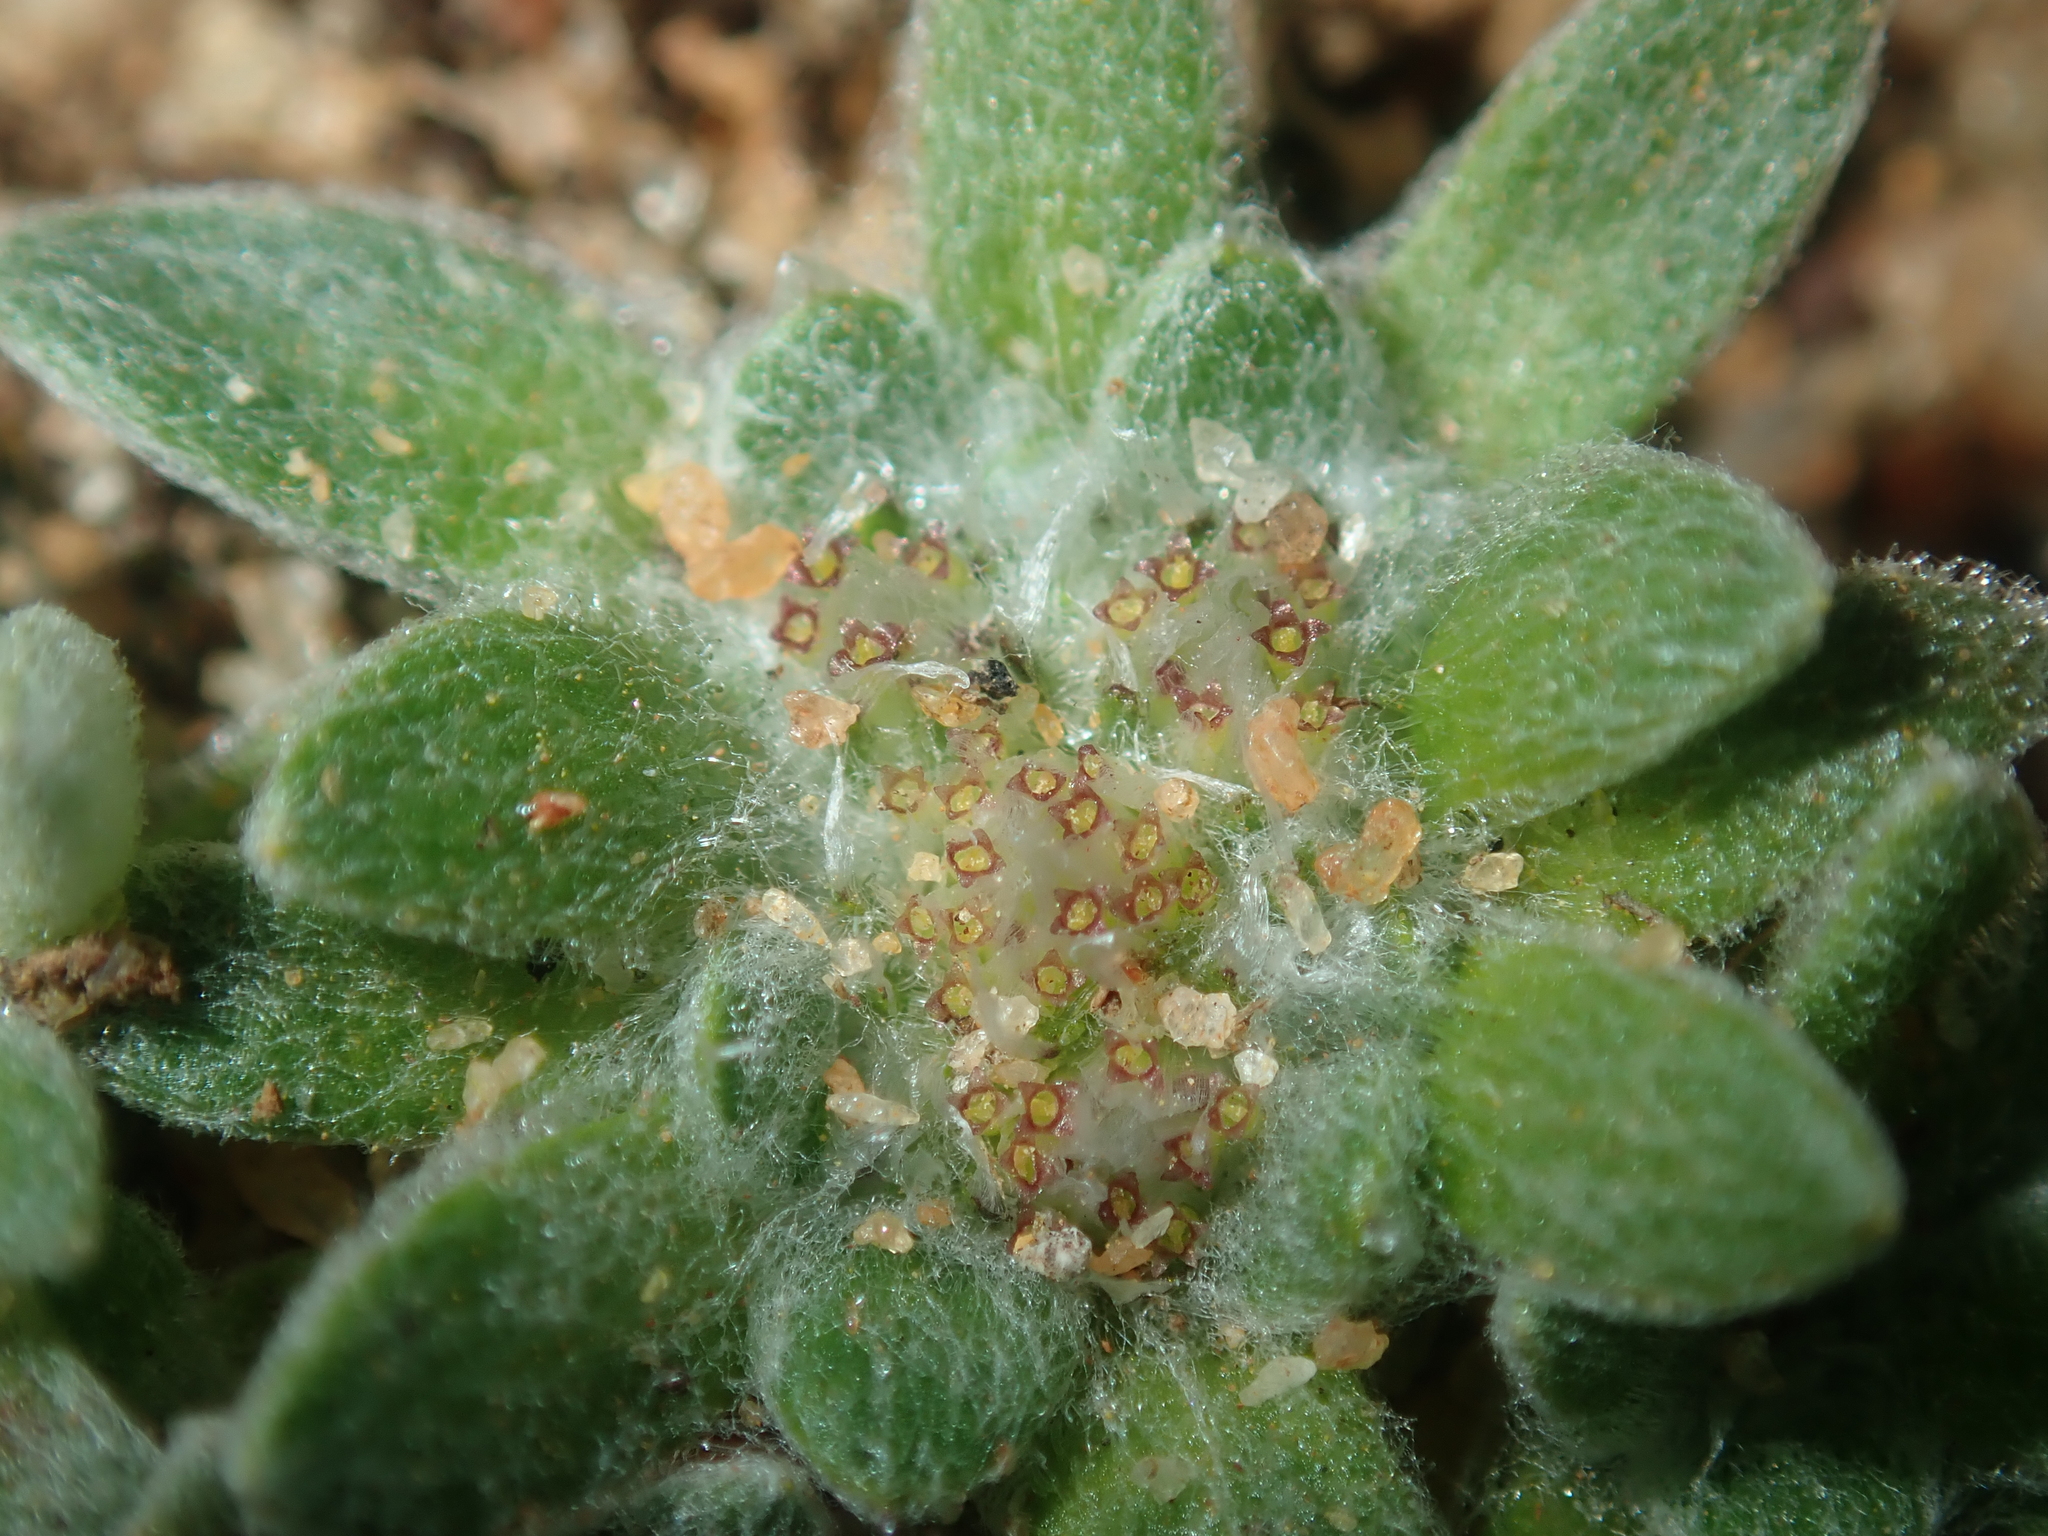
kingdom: Plantae
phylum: Tracheophyta
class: Magnoliopsida
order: Asterales
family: Asteraceae
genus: Chthonocephalus
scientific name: Chthonocephalus pseudevax
